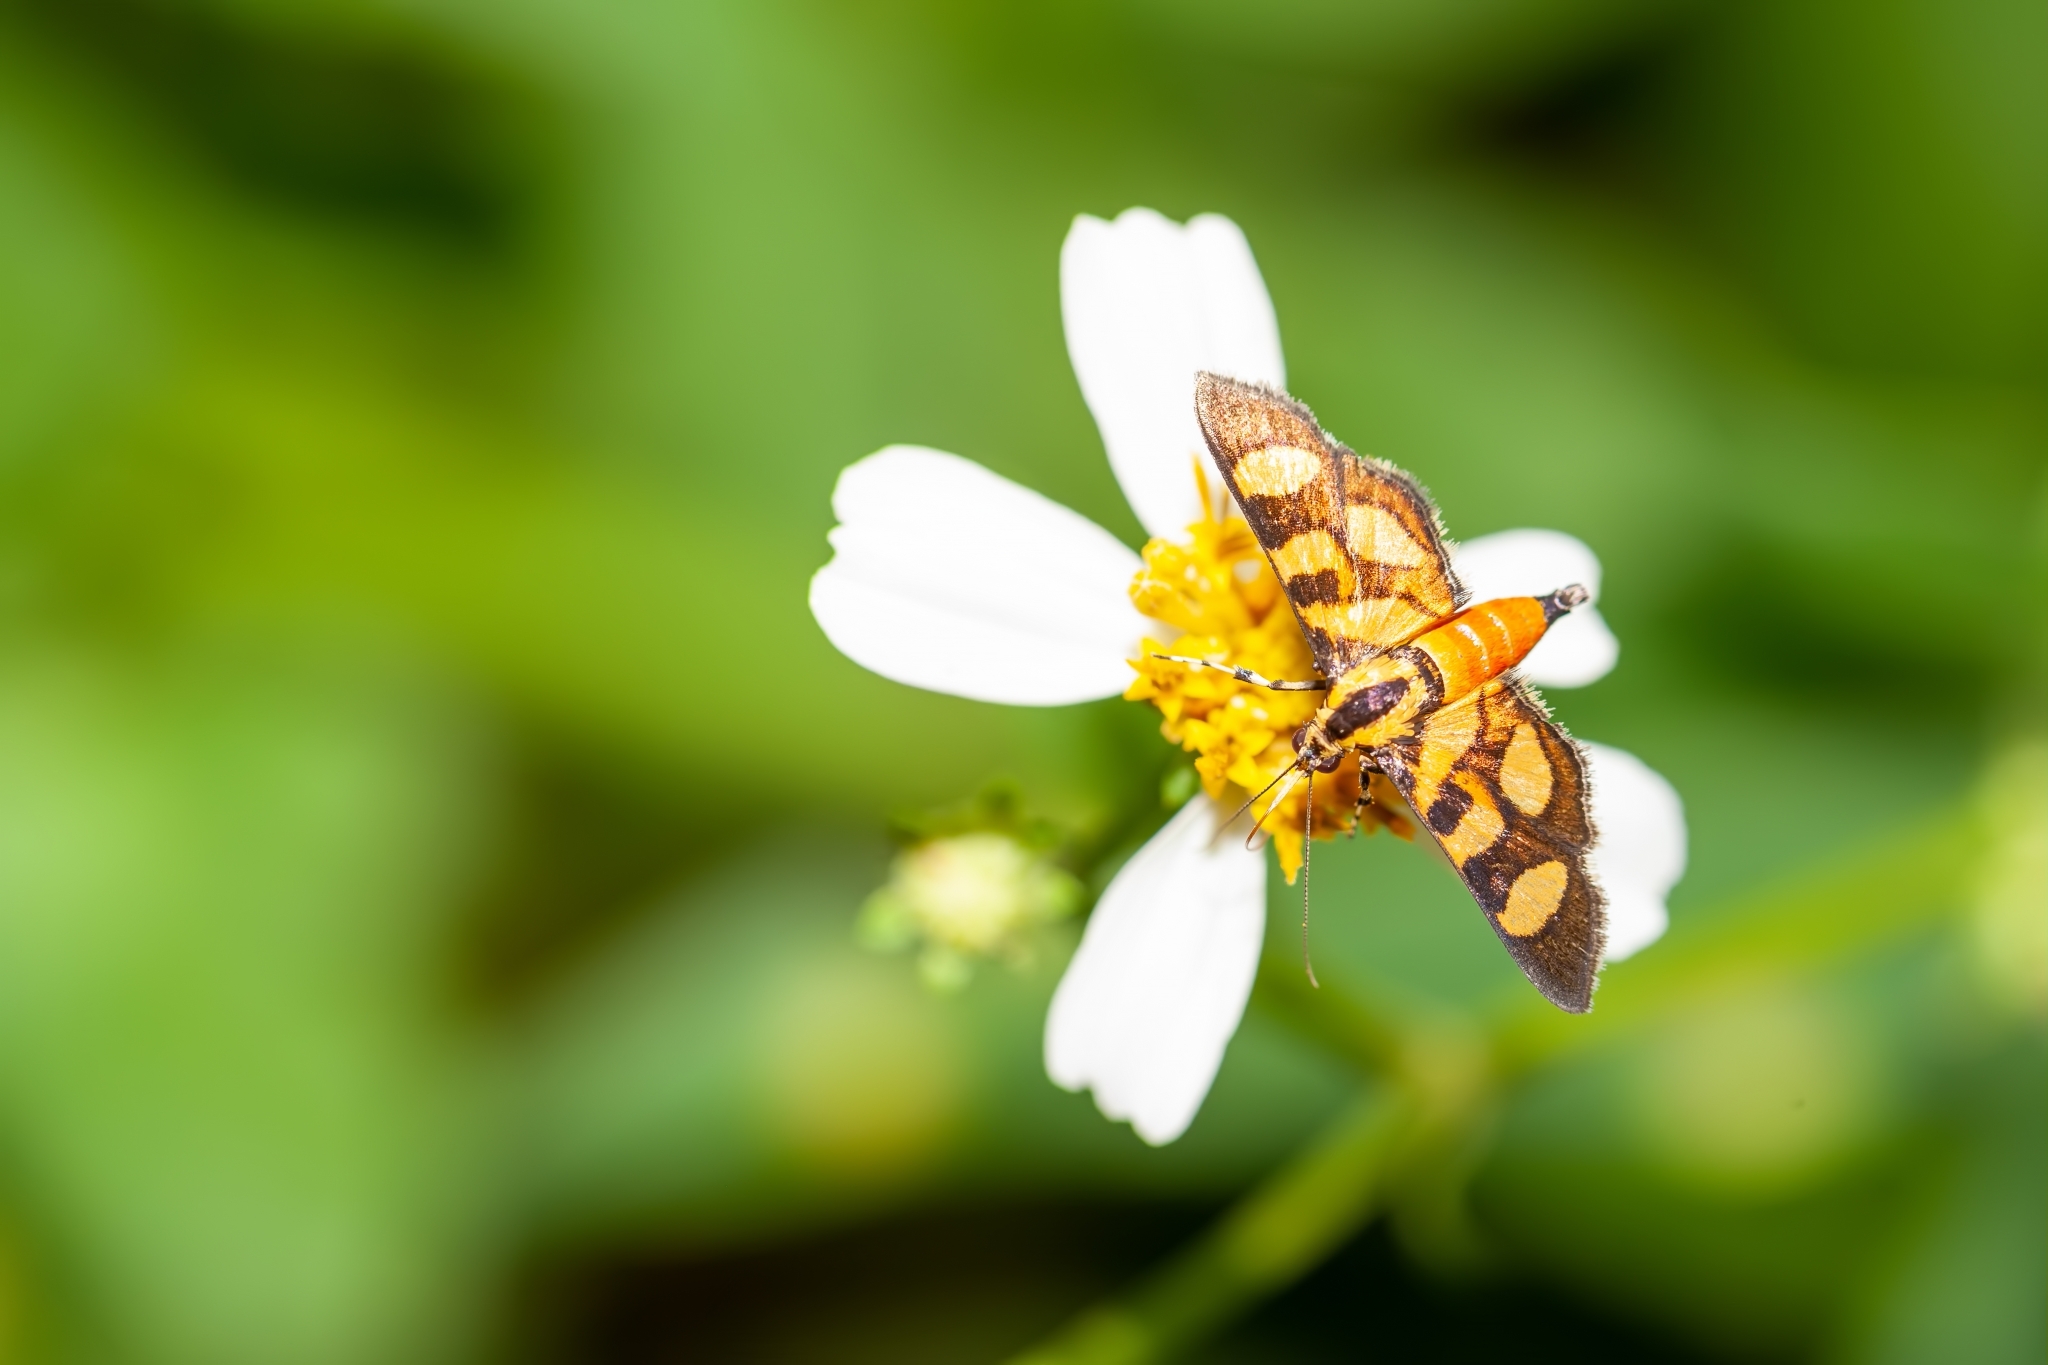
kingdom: Animalia
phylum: Arthropoda
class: Insecta
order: Lepidoptera
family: Crambidae
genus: Syngamia
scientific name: Syngamia florella
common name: Orange-spotted flower moth
